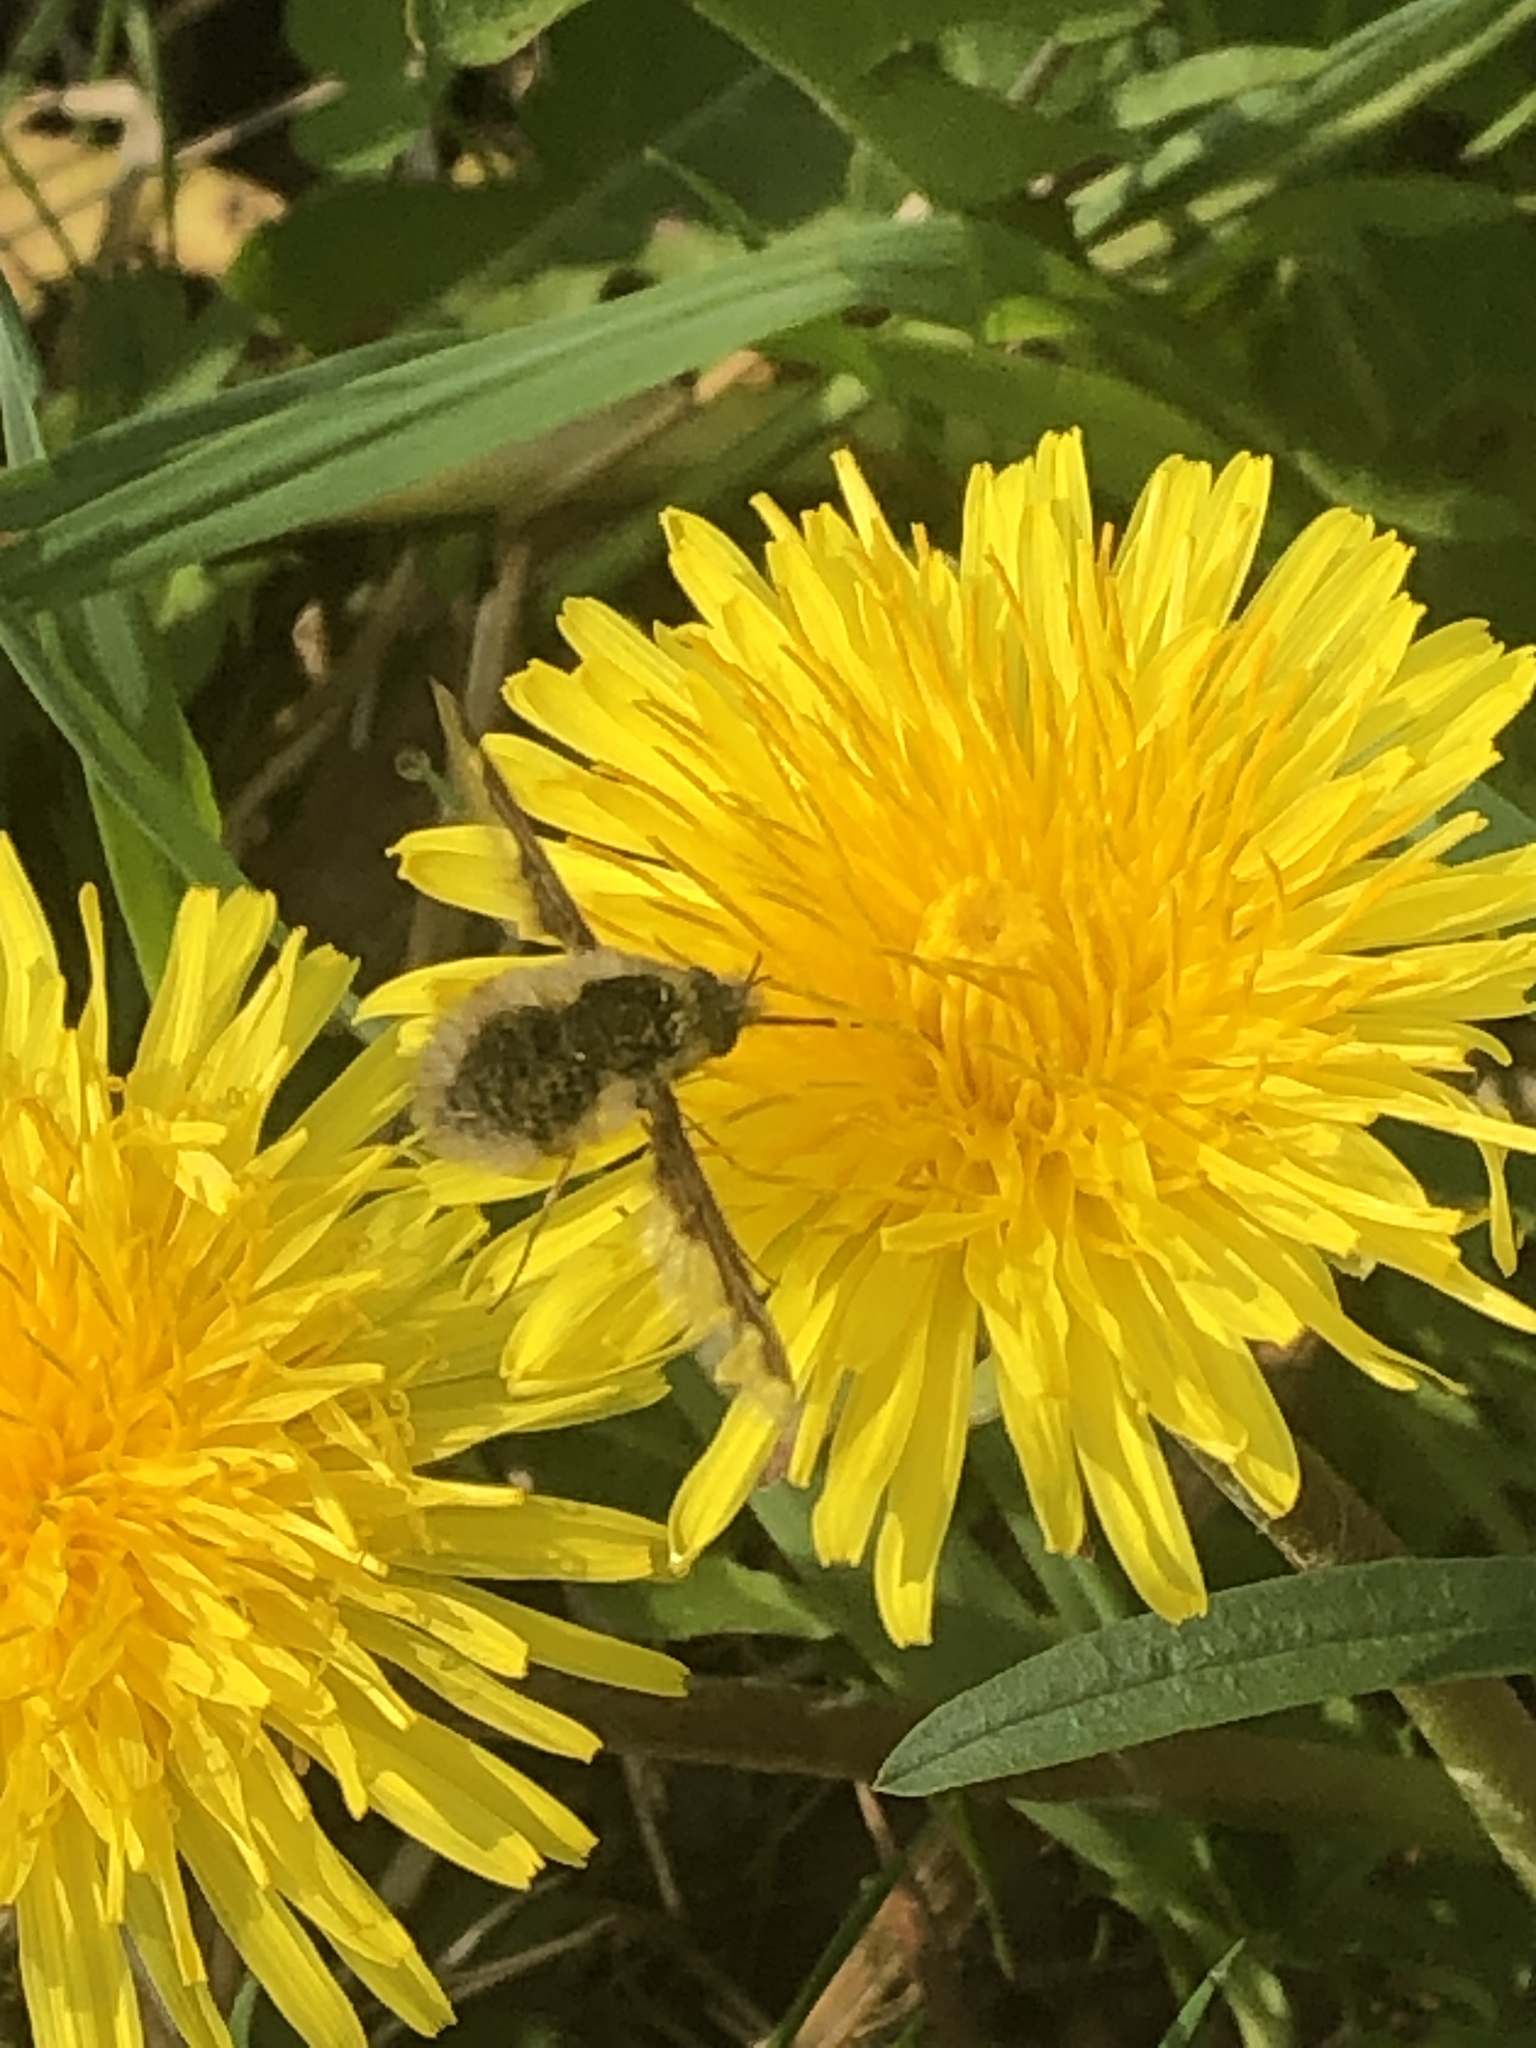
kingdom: Animalia
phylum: Arthropoda
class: Insecta
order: Diptera
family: Bombyliidae
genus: Bombylius
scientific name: Bombylius major
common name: Bee fly
